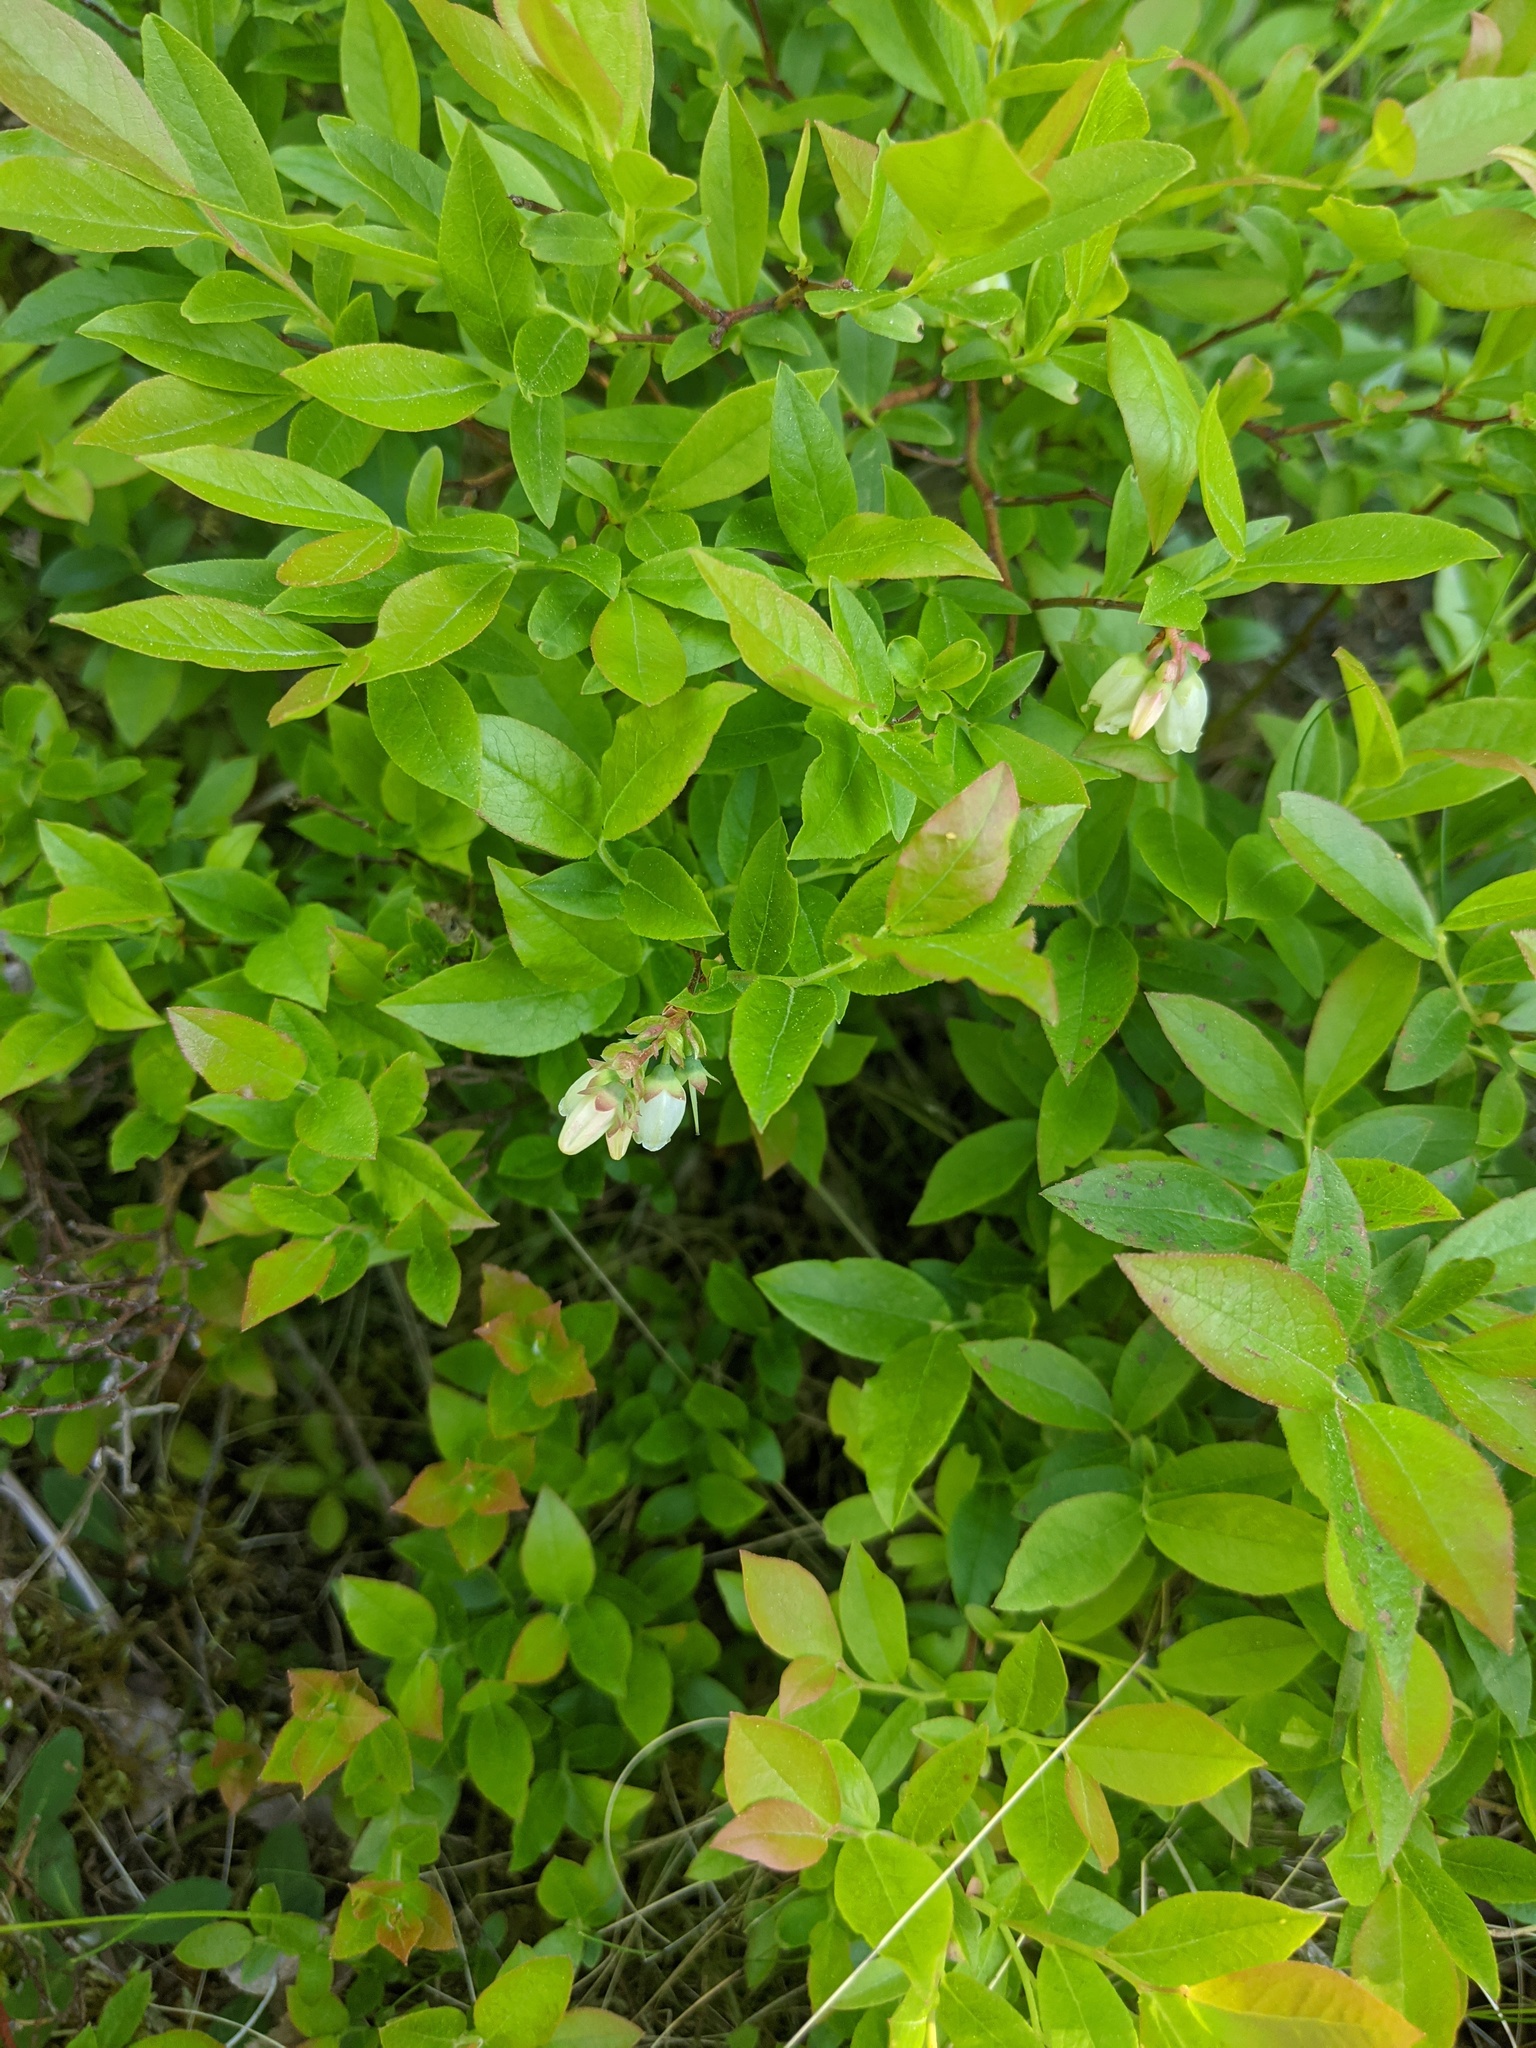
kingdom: Plantae
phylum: Tracheophyta
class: Magnoliopsida
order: Ericales
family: Ericaceae
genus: Vaccinium
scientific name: Vaccinium angustifolium
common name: Early lowbush blueberry
